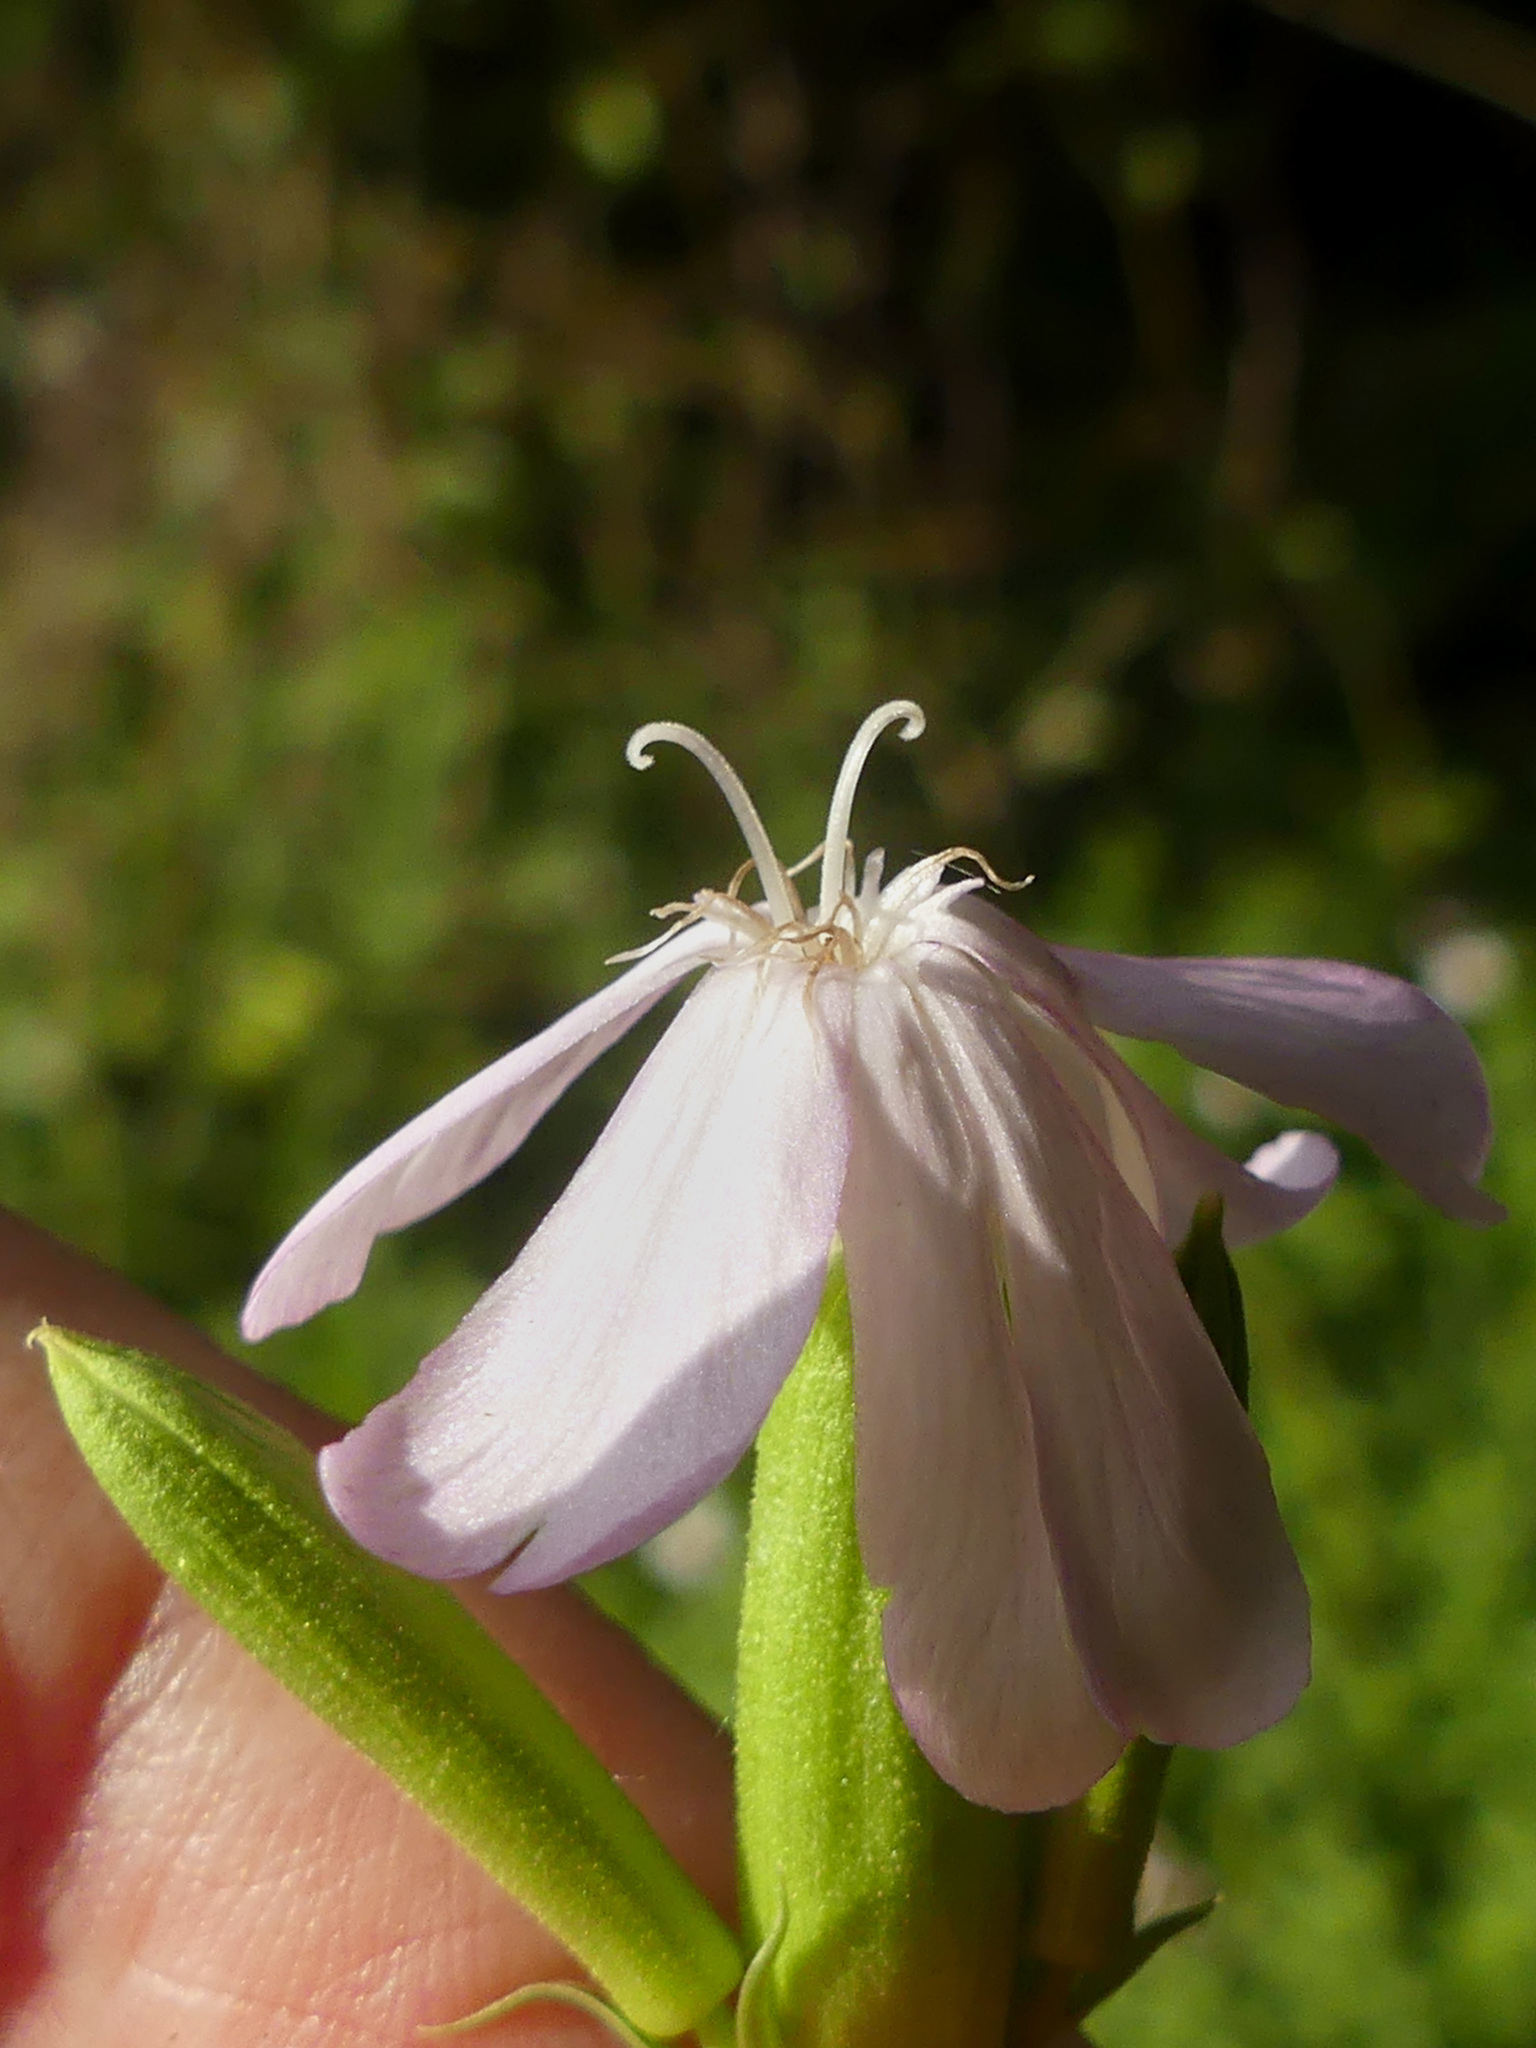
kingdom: Plantae
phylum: Tracheophyta
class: Magnoliopsida
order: Caryophyllales
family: Caryophyllaceae
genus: Saponaria
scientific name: Saponaria officinalis
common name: Soapwort
